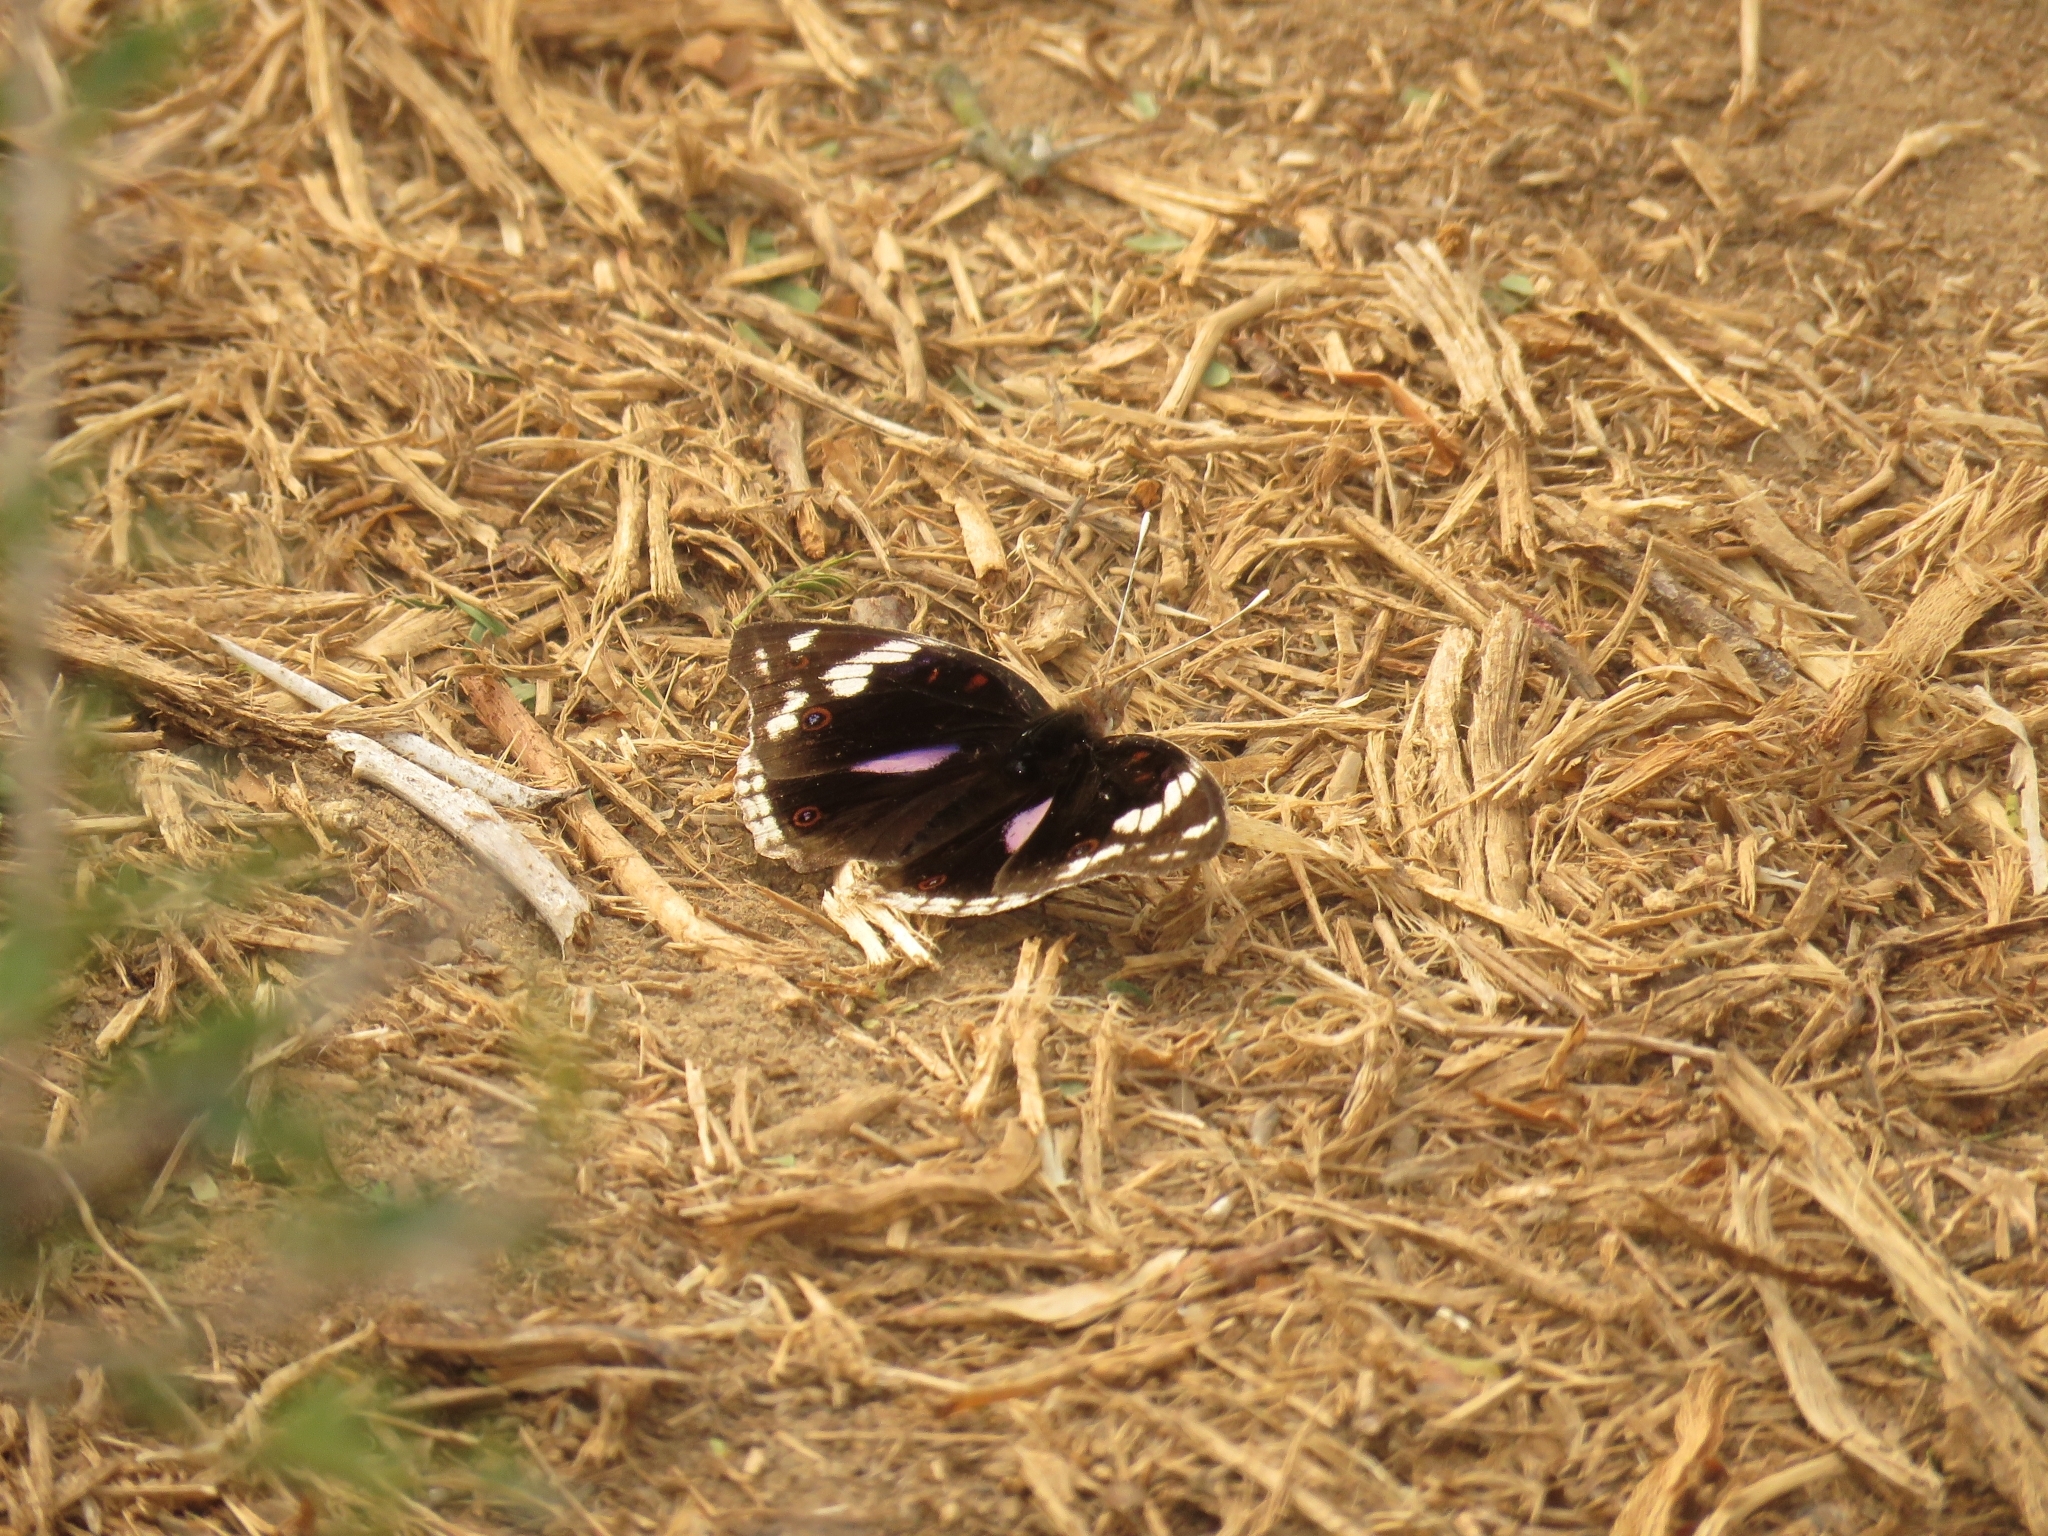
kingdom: Animalia
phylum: Arthropoda
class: Insecta
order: Lepidoptera
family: Nymphalidae
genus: Junonia
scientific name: Junonia oenone
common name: Dark blue pansy
